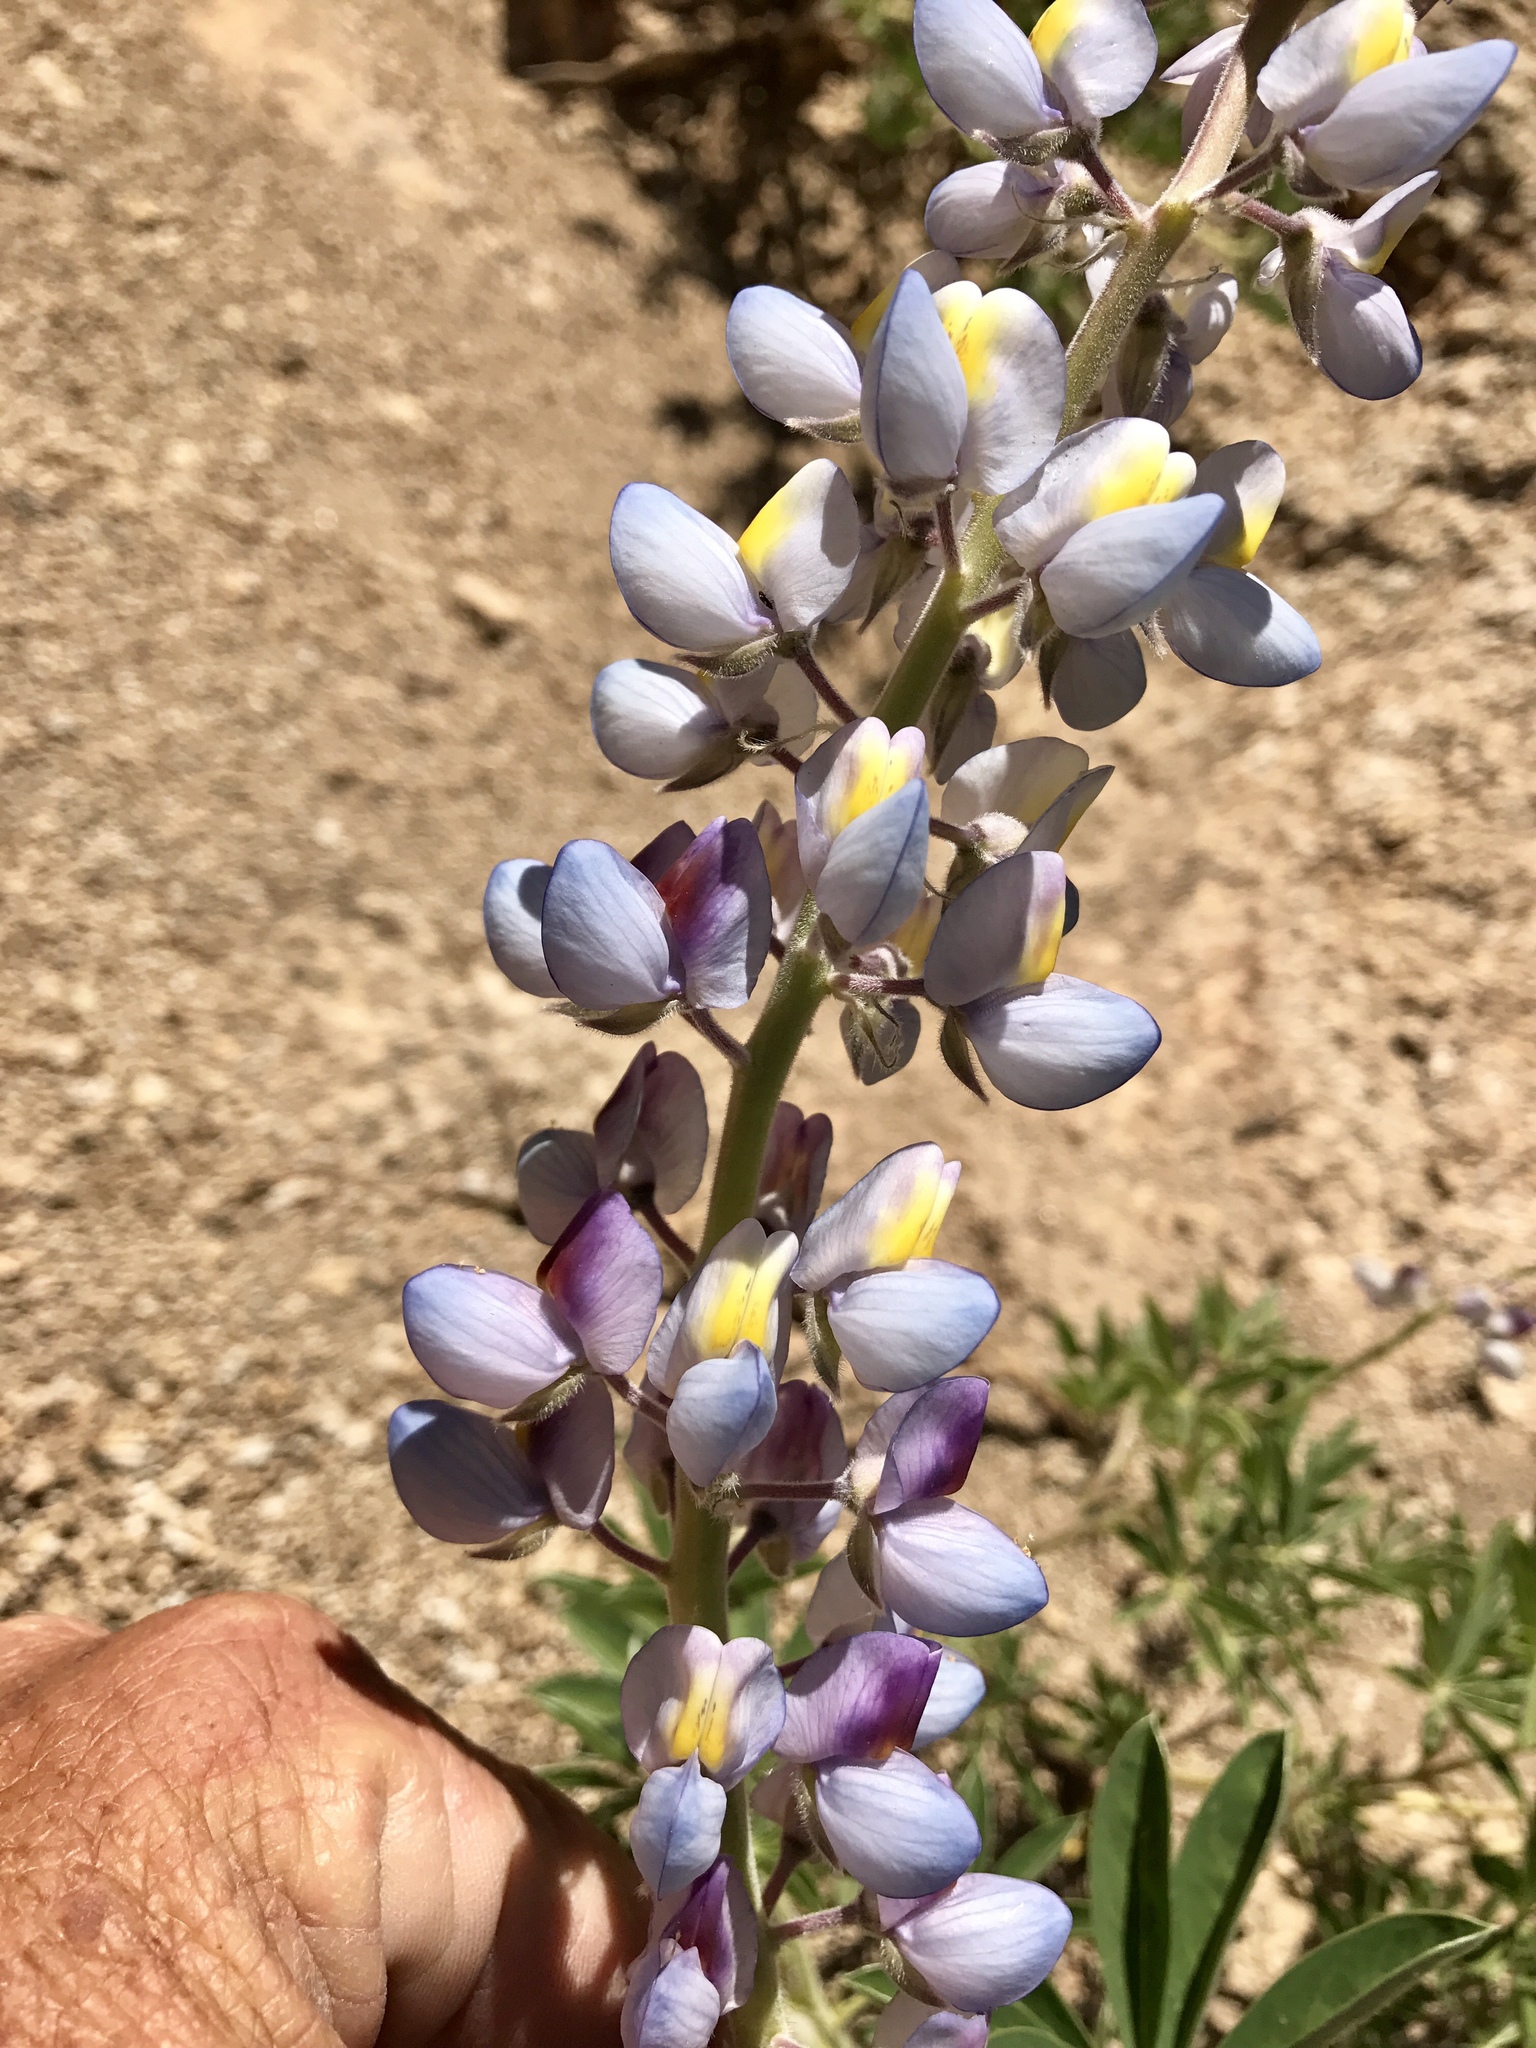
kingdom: Plantae
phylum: Tracheophyta
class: Magnoliopsida
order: Fabales
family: Fabaceae
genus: Lupinus
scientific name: Lupinus neomexicanus
